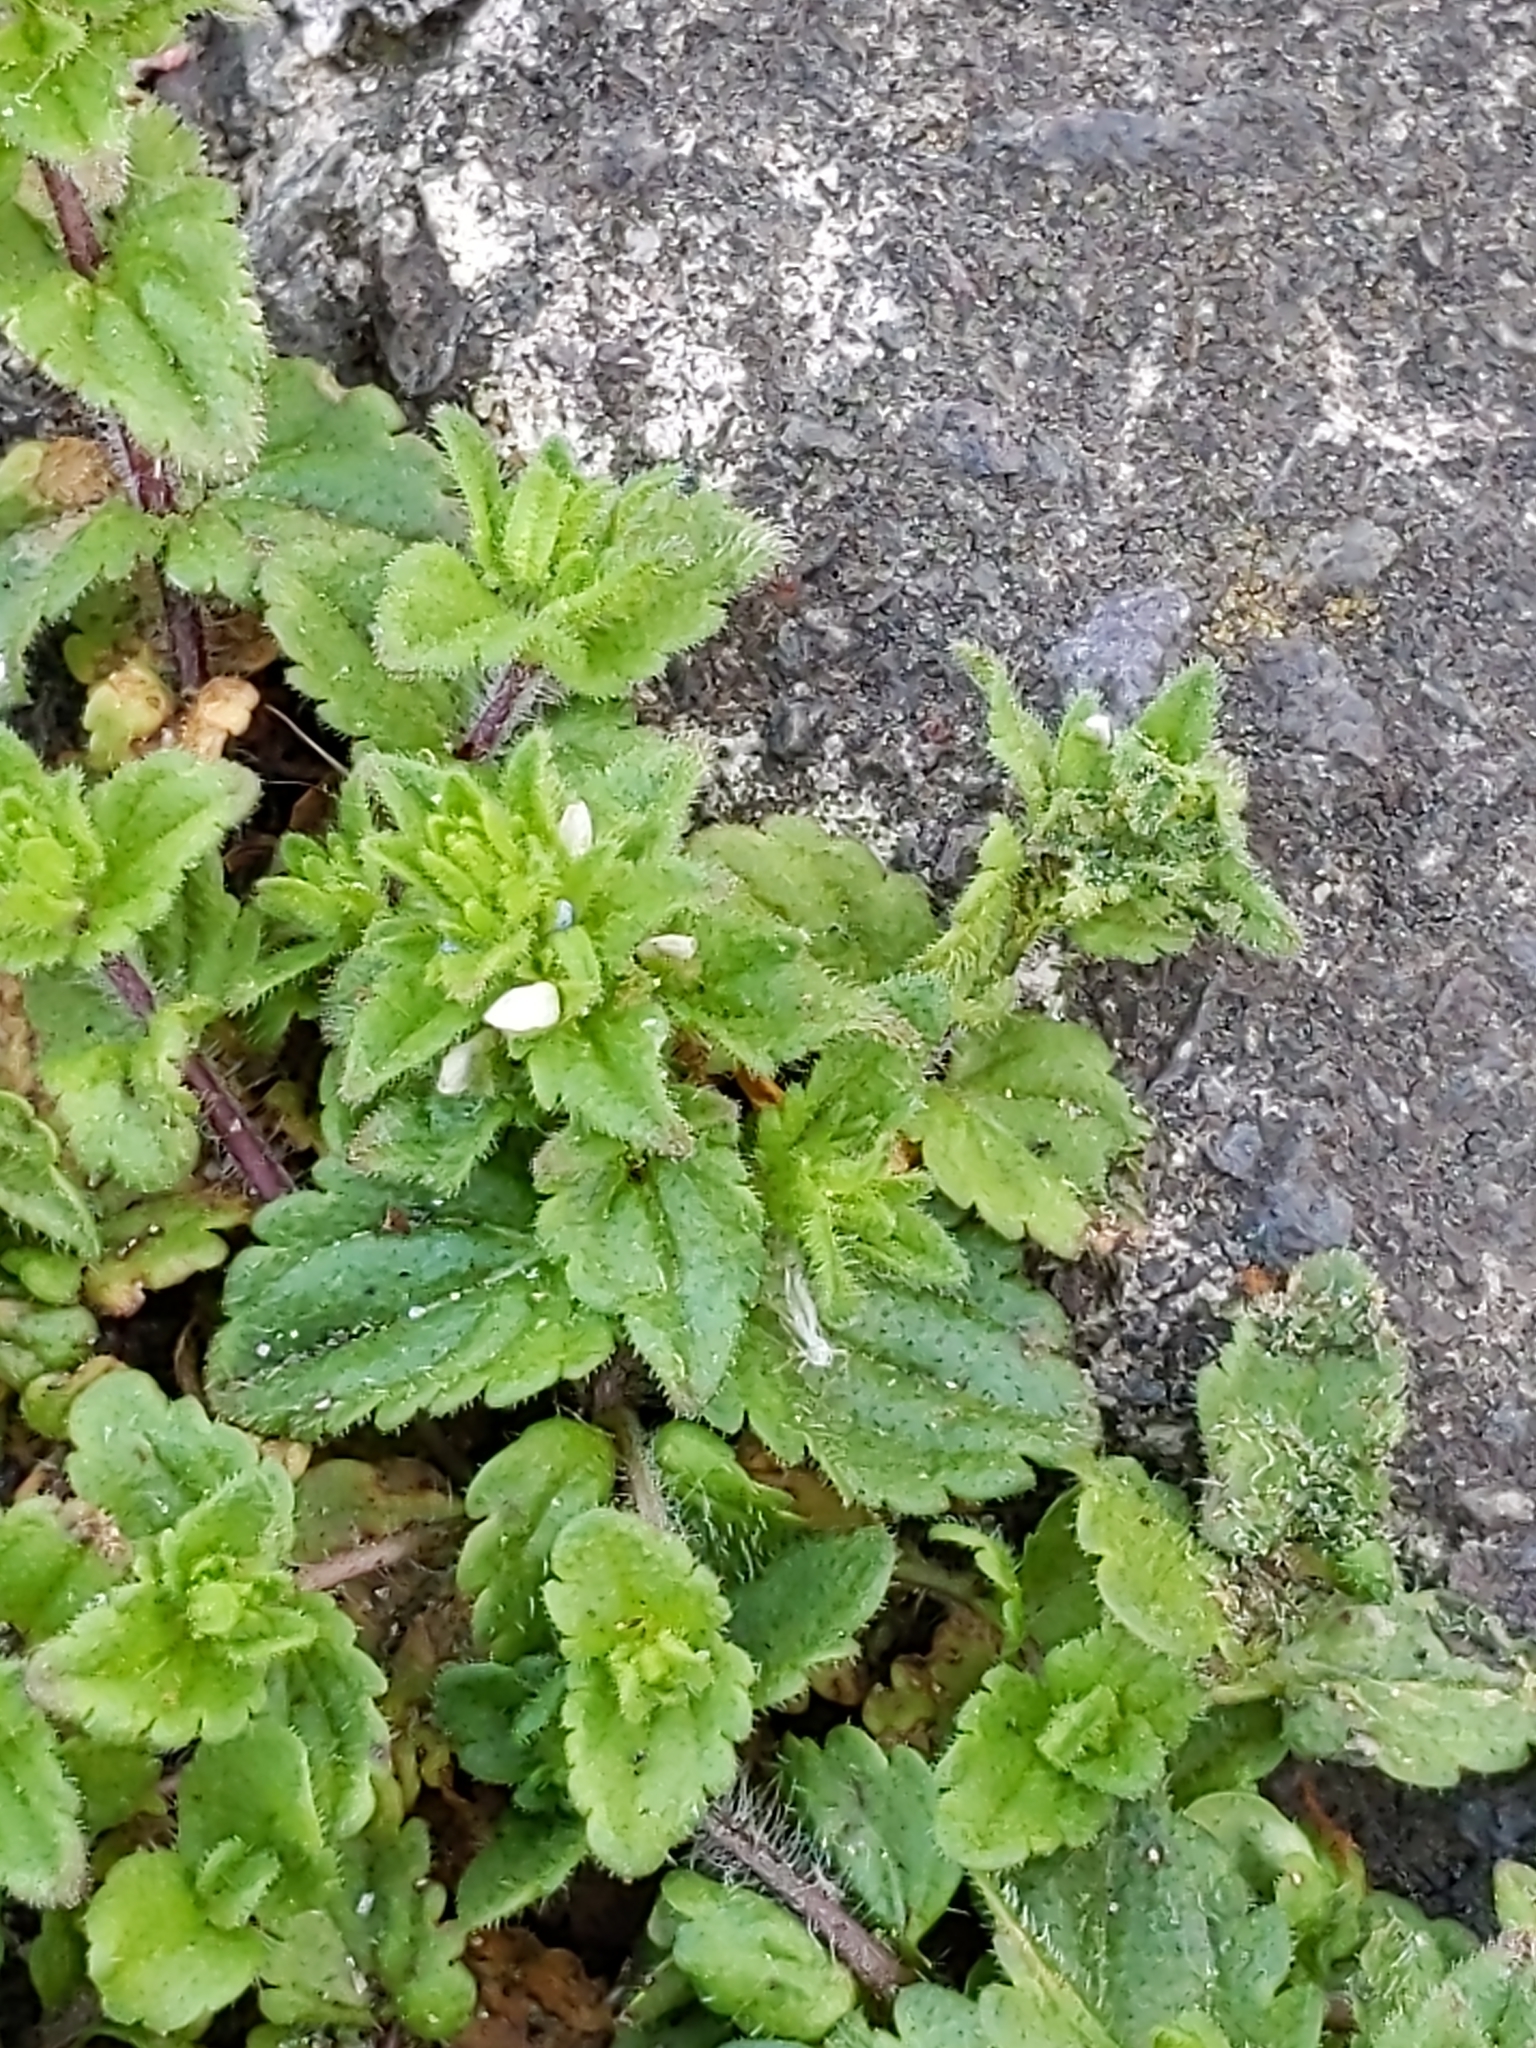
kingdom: Plantae
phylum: Tracheophyta
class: Magnoliopsida
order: Lamiales
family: Plantaginaceae
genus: Veronica
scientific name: Veronica arvensis
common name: Corn speedwell
